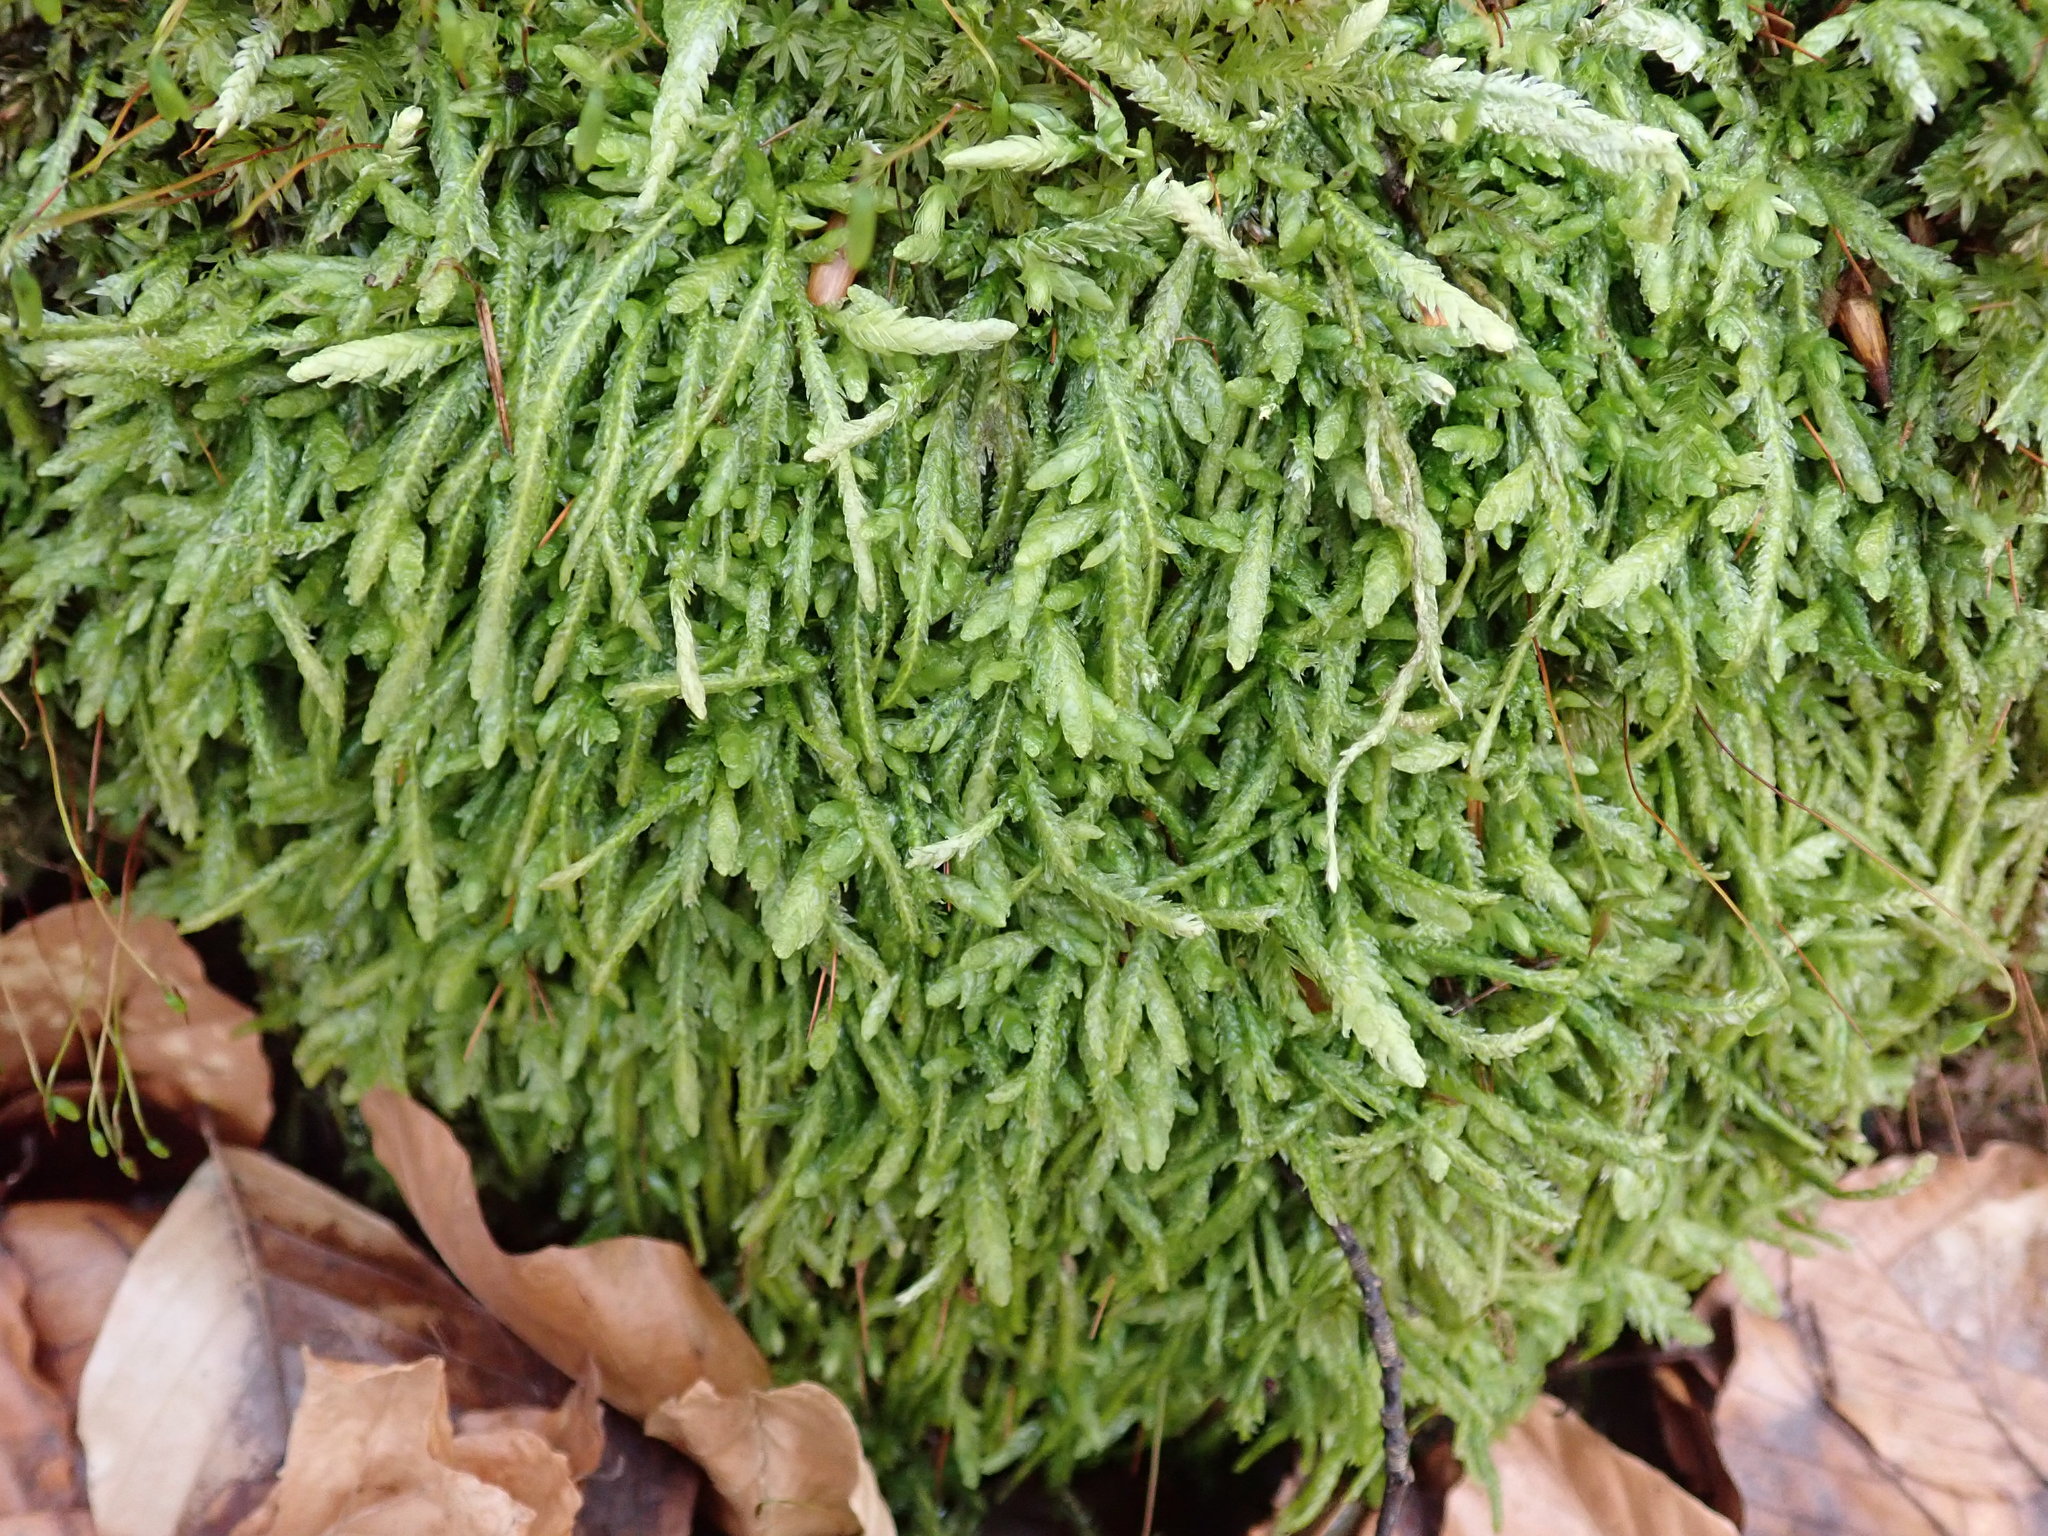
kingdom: Plantae
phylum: Bryophyta
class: Bryopsida
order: Hypnales
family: Plagiotheciaceae
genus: Plagiothecium
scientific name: Plagiothecium undulatum
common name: Waved silk-moss
